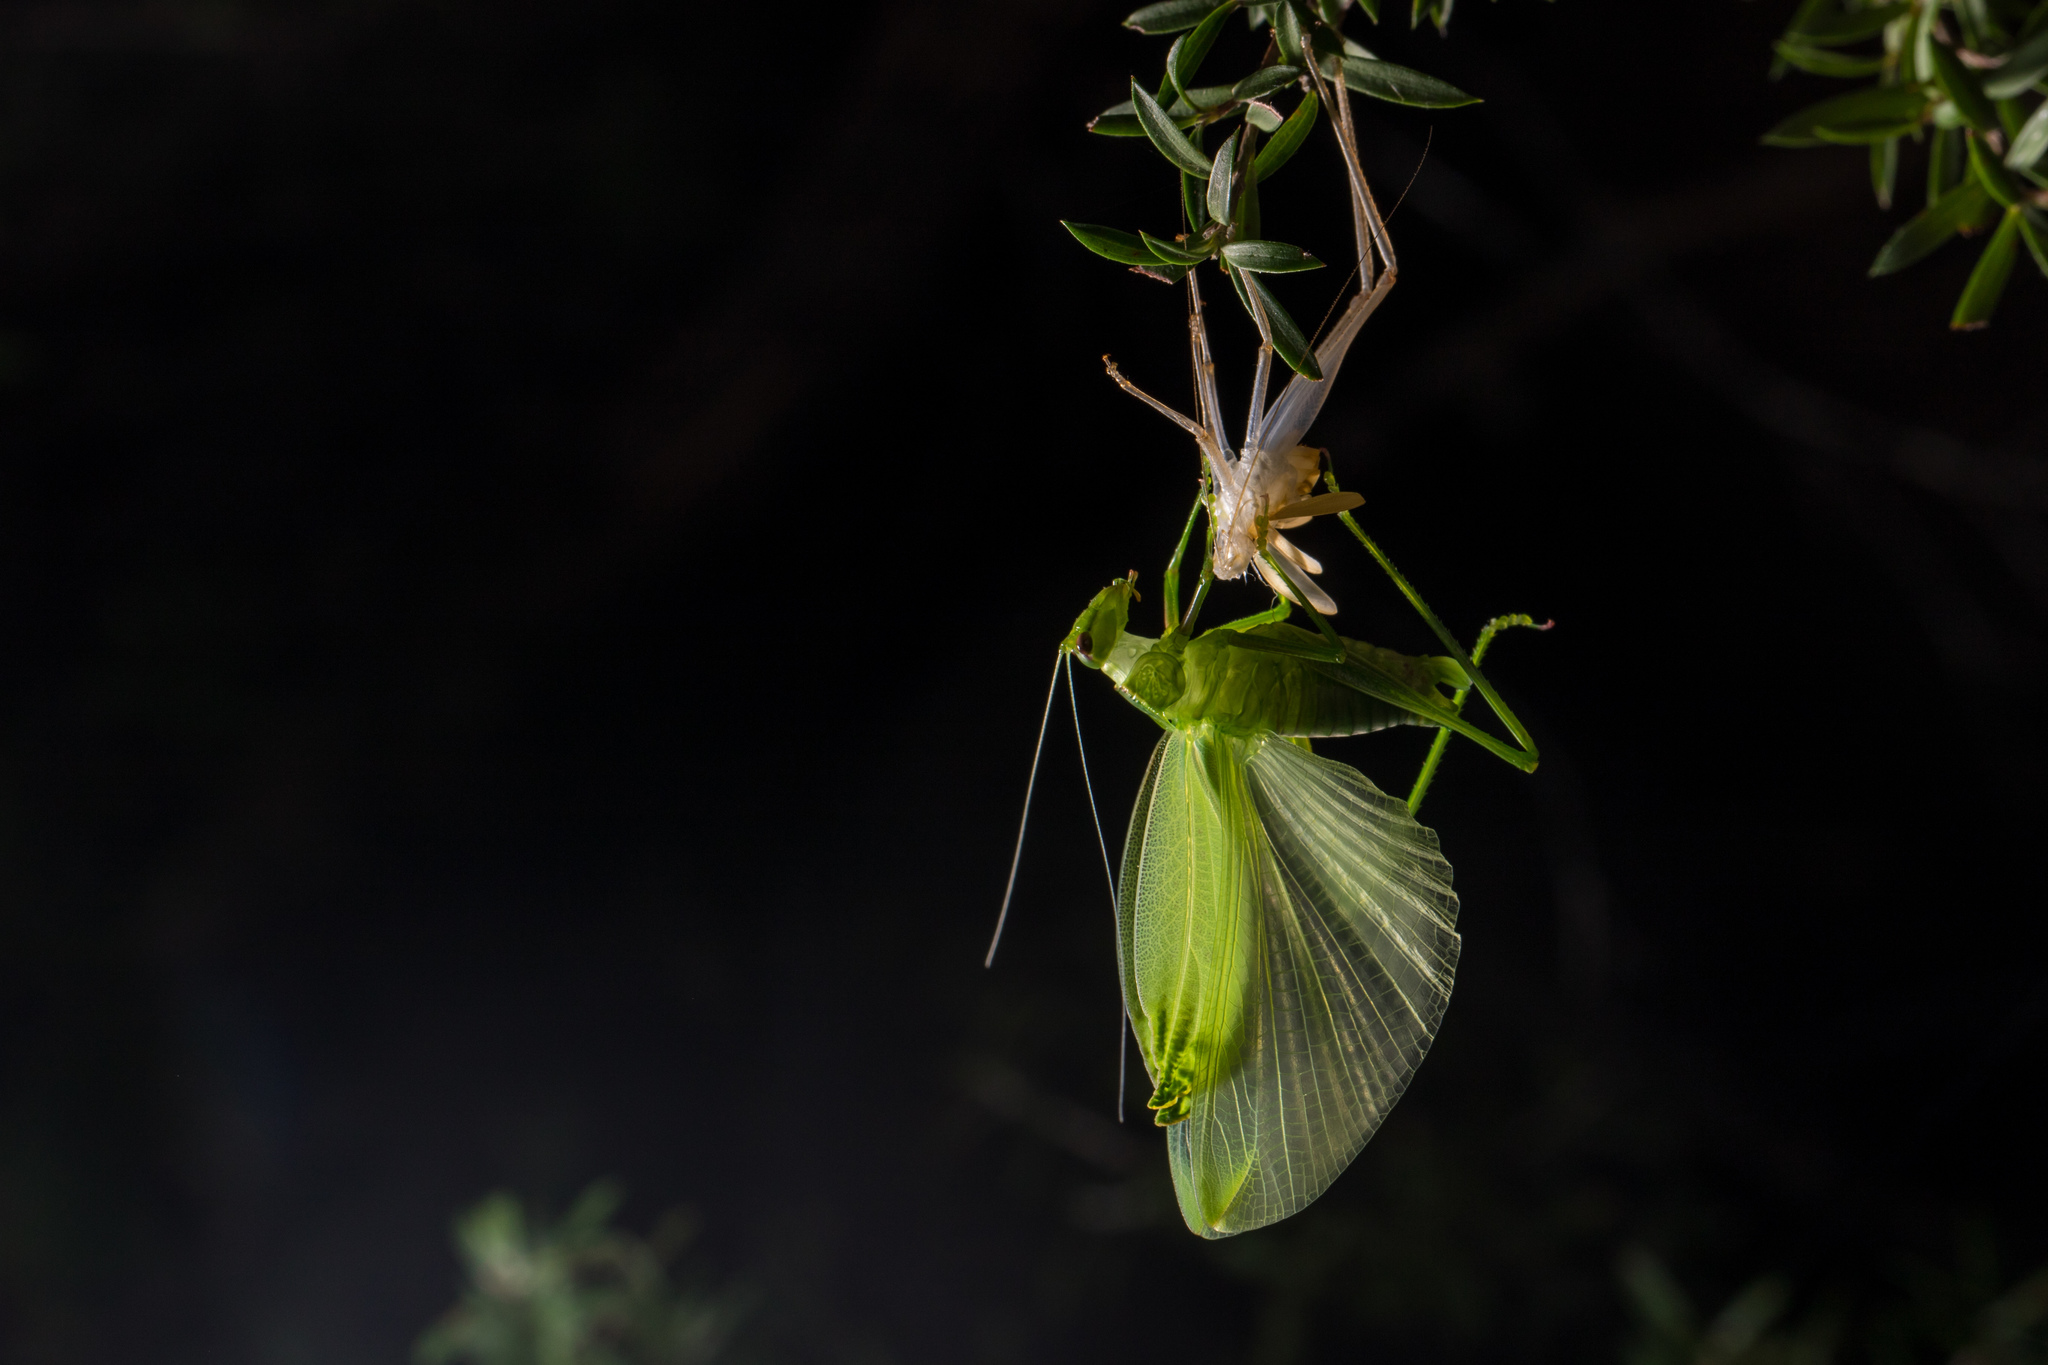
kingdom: Animalia
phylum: Arthropoda
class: Insecta
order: Orthoptera
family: Tettigoniidae
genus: Caedicia
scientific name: Caedicia simplex
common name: Common garden katydid
